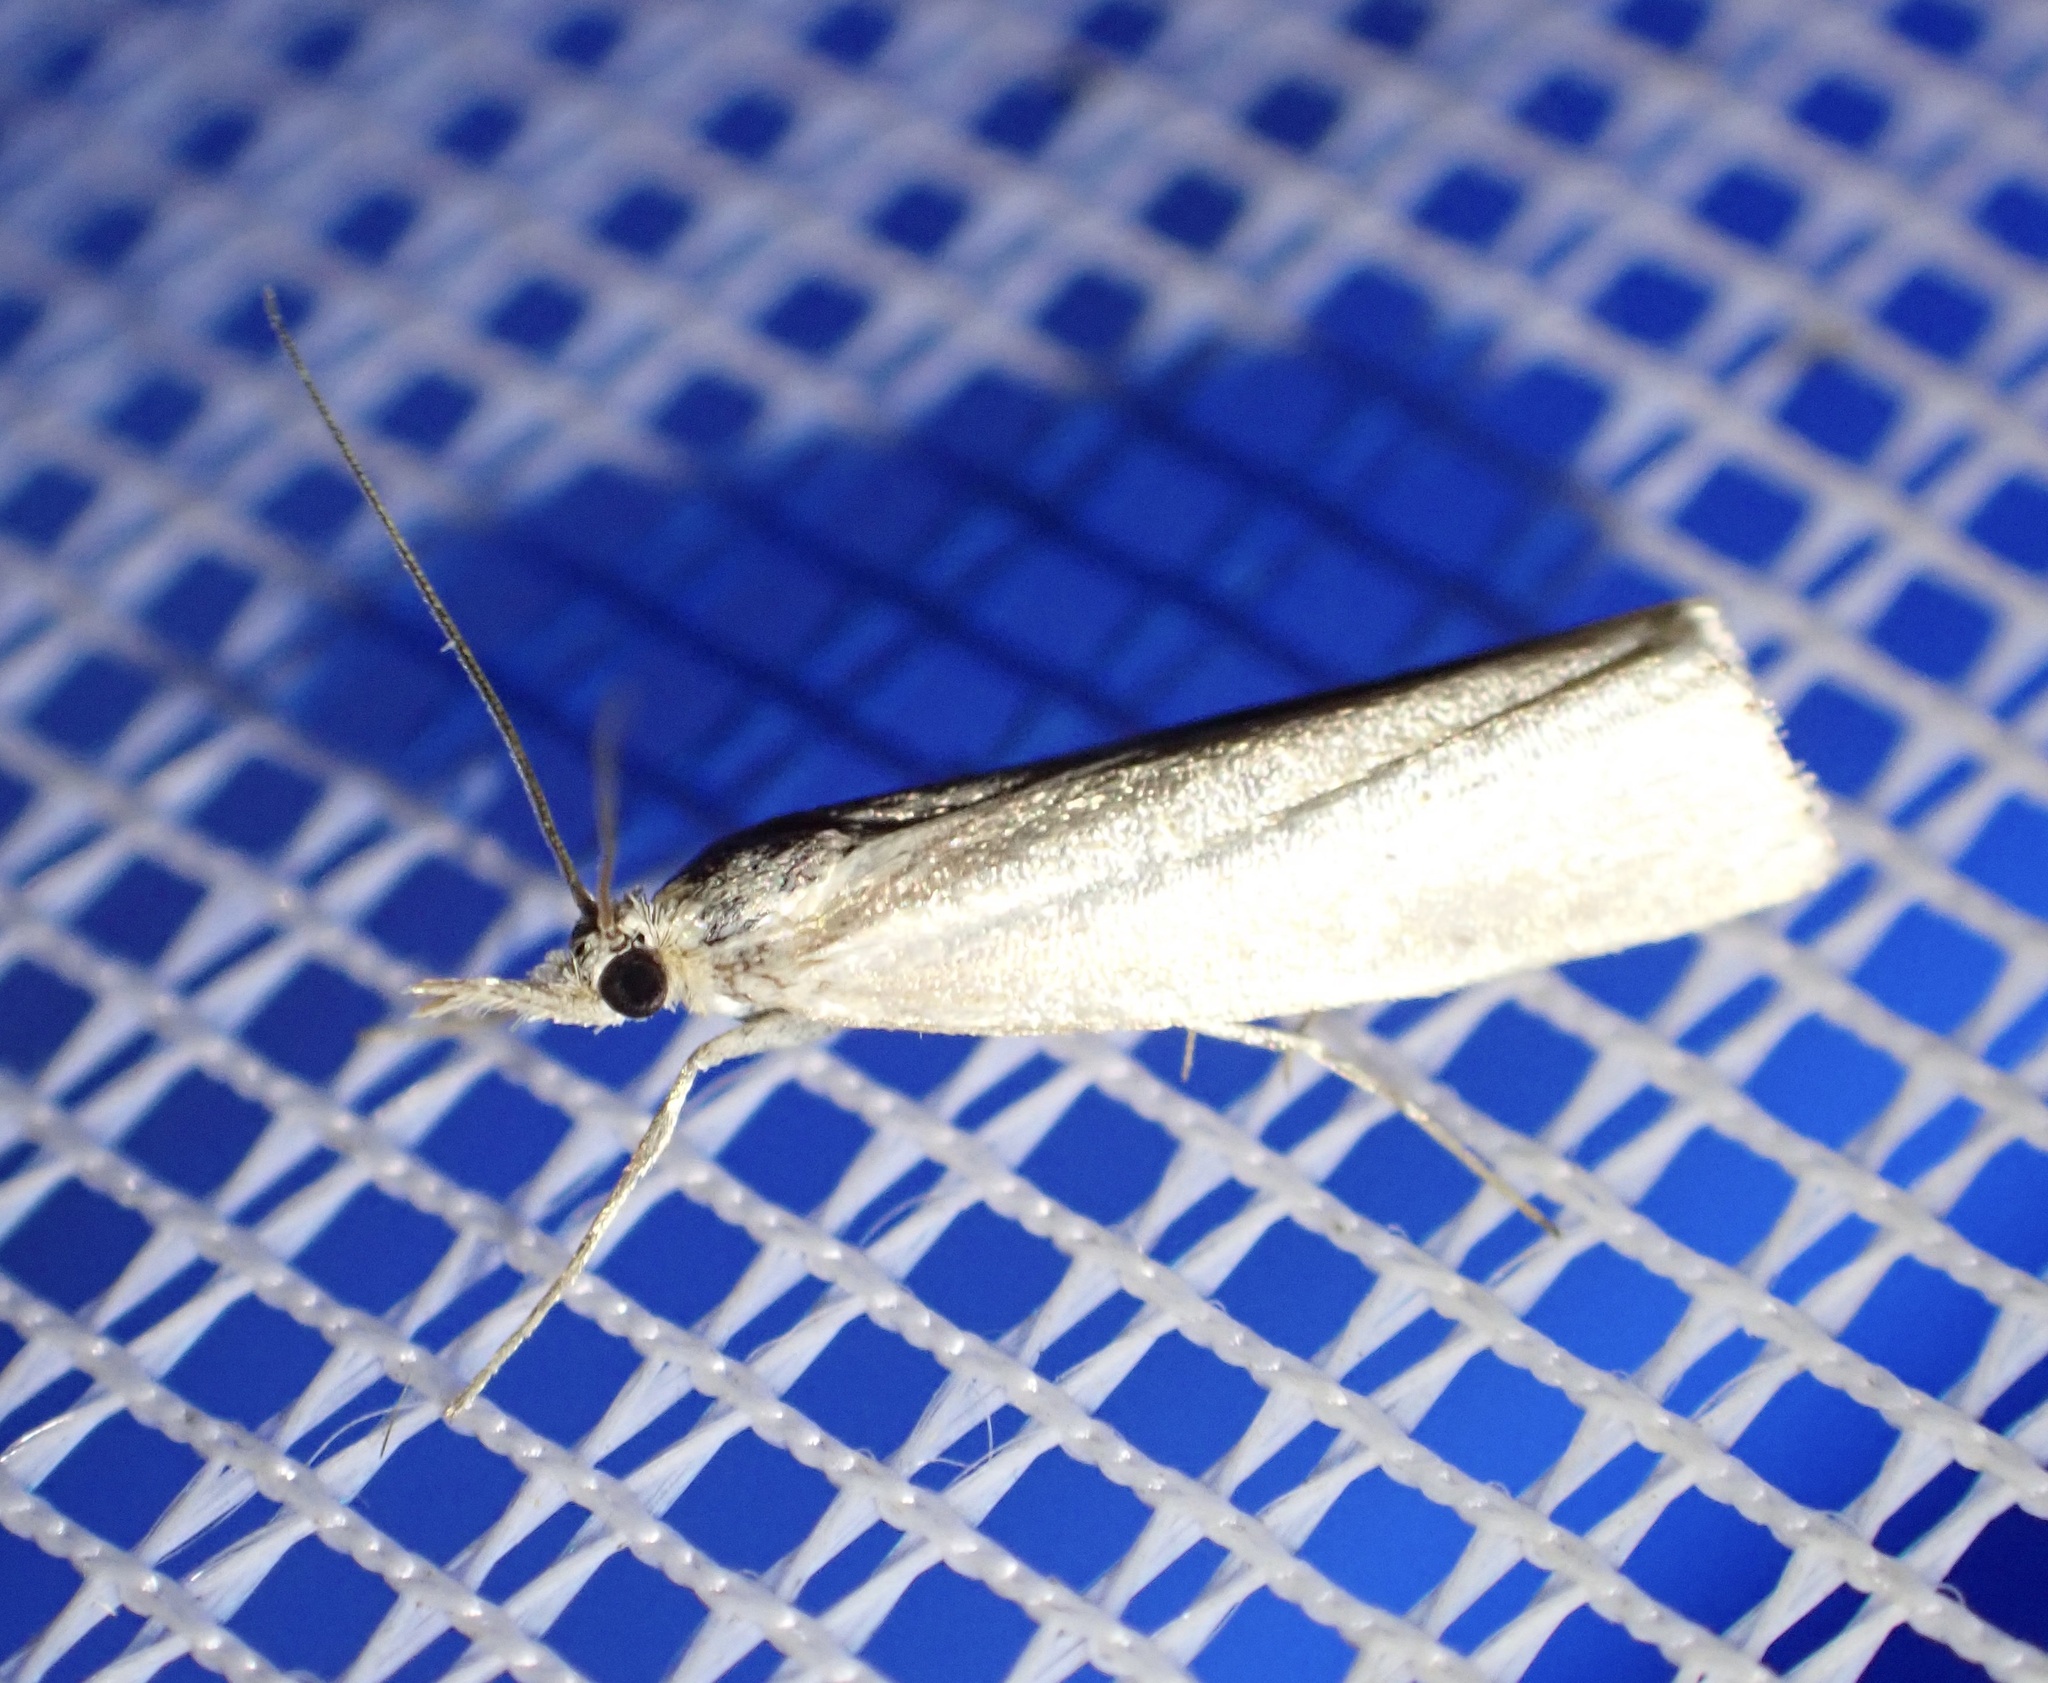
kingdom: Animalia
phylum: Arthropoda
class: Insecta
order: Lepidoptera
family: Crambidae
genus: Crambus
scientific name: Crambus perlellus
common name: Yellow satin veneer
